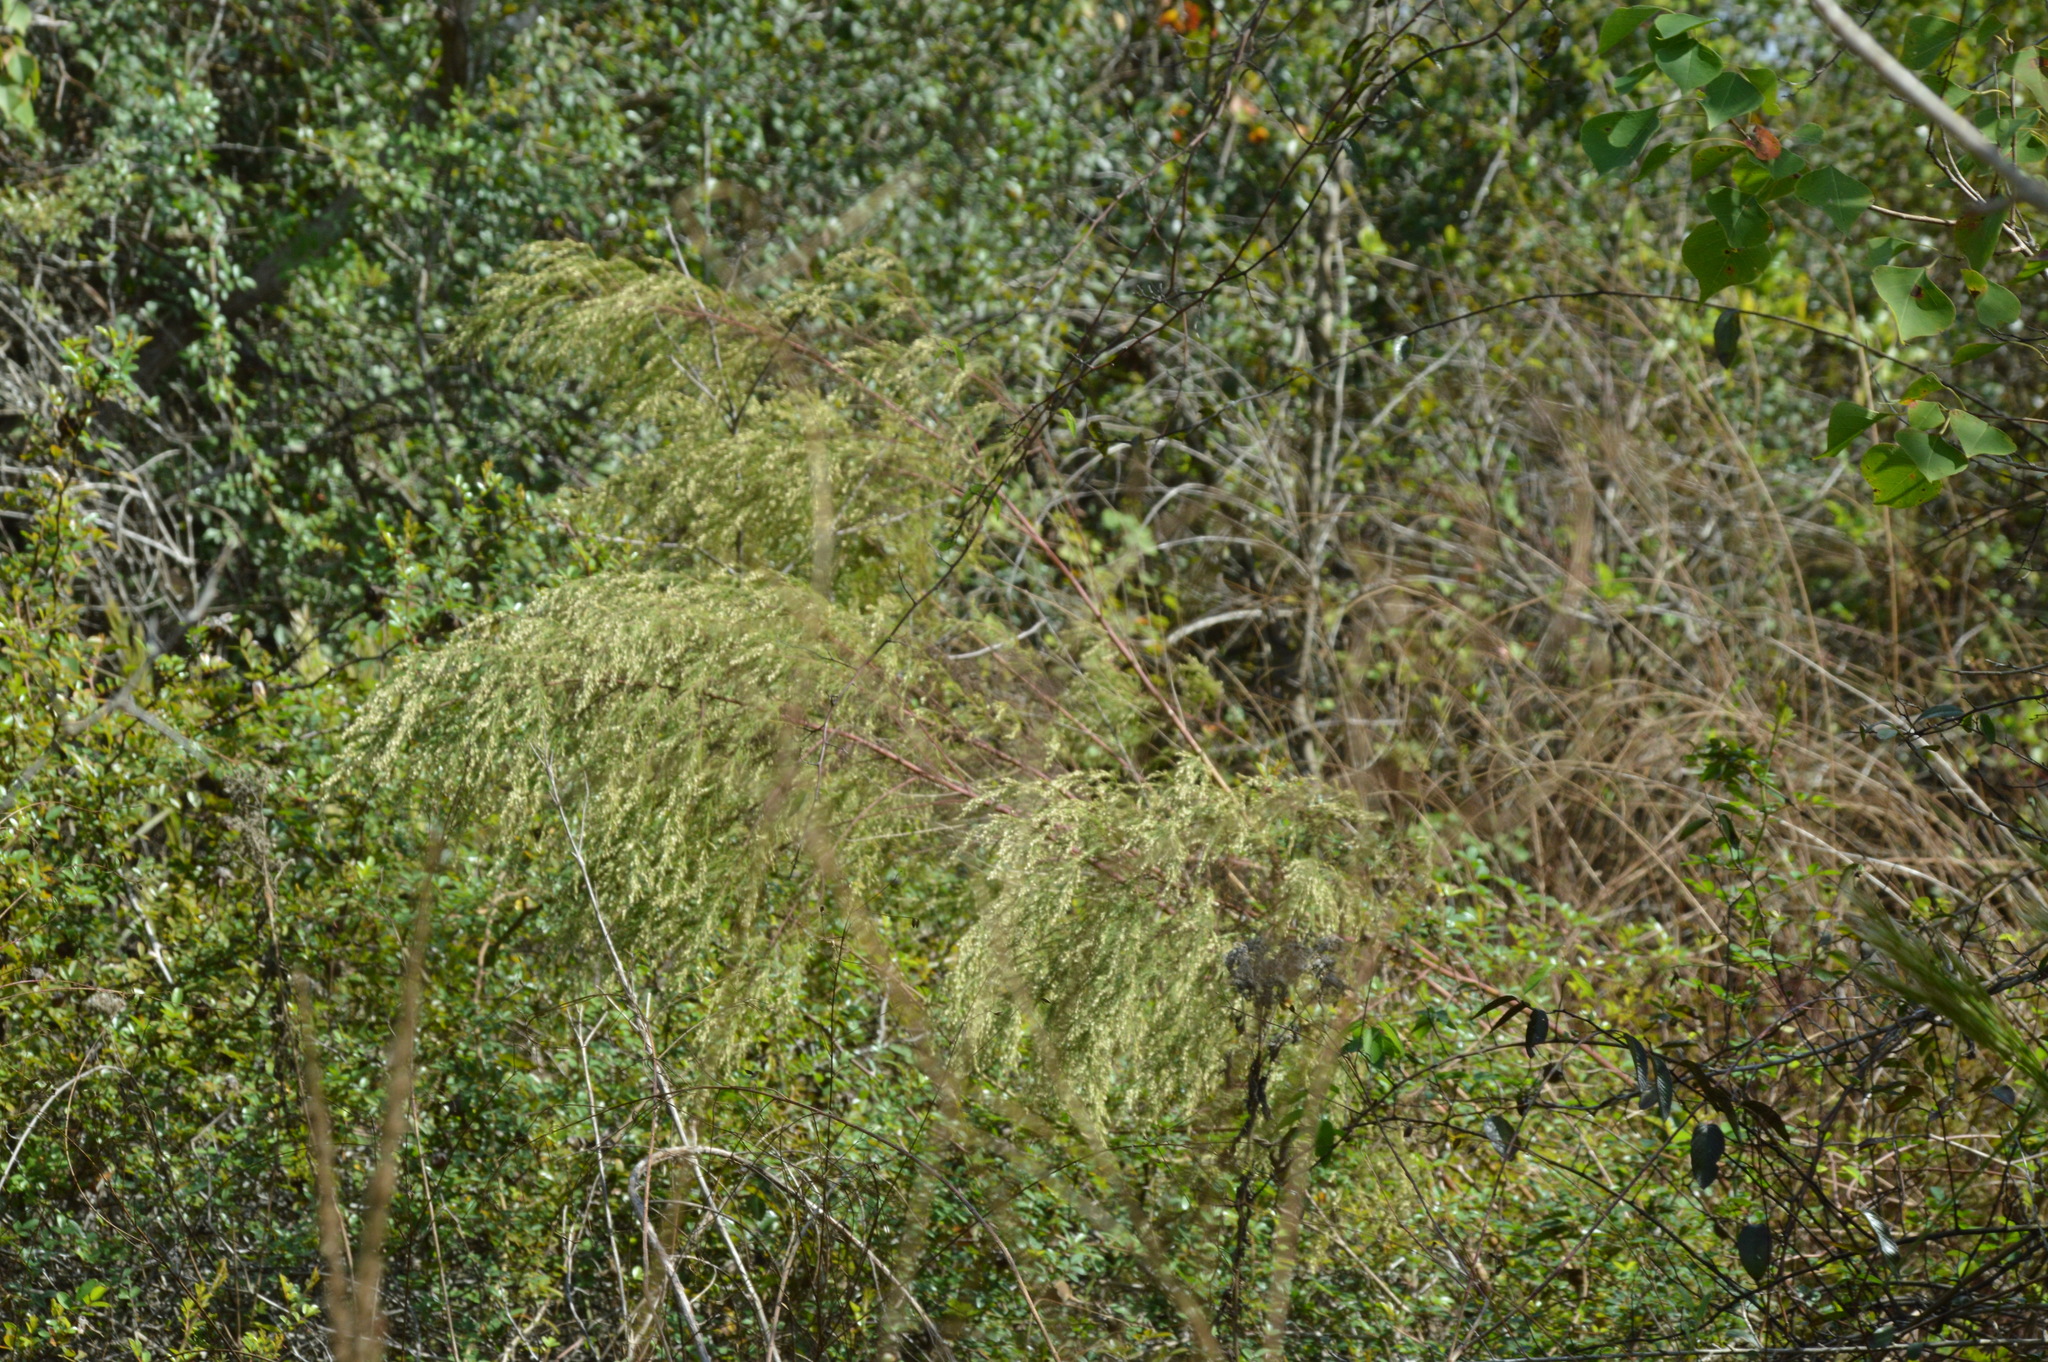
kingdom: Plantae
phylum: Tracheophyta
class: Magnoliopsida
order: Asterales
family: Asteraceae
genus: Eupatorium
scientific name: Eupatorium capillifolium
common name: Dog-fennel
